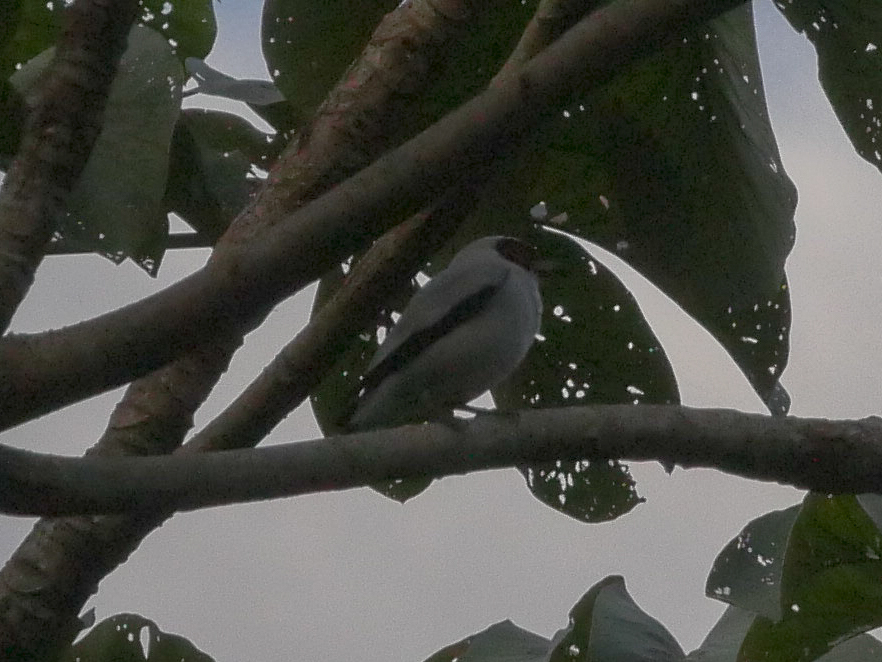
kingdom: Animalia
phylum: Chordata
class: Aves
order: Passeriformes
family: Cotingidae
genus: Tityra
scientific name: Tityra semifasciata
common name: Masked tityra
